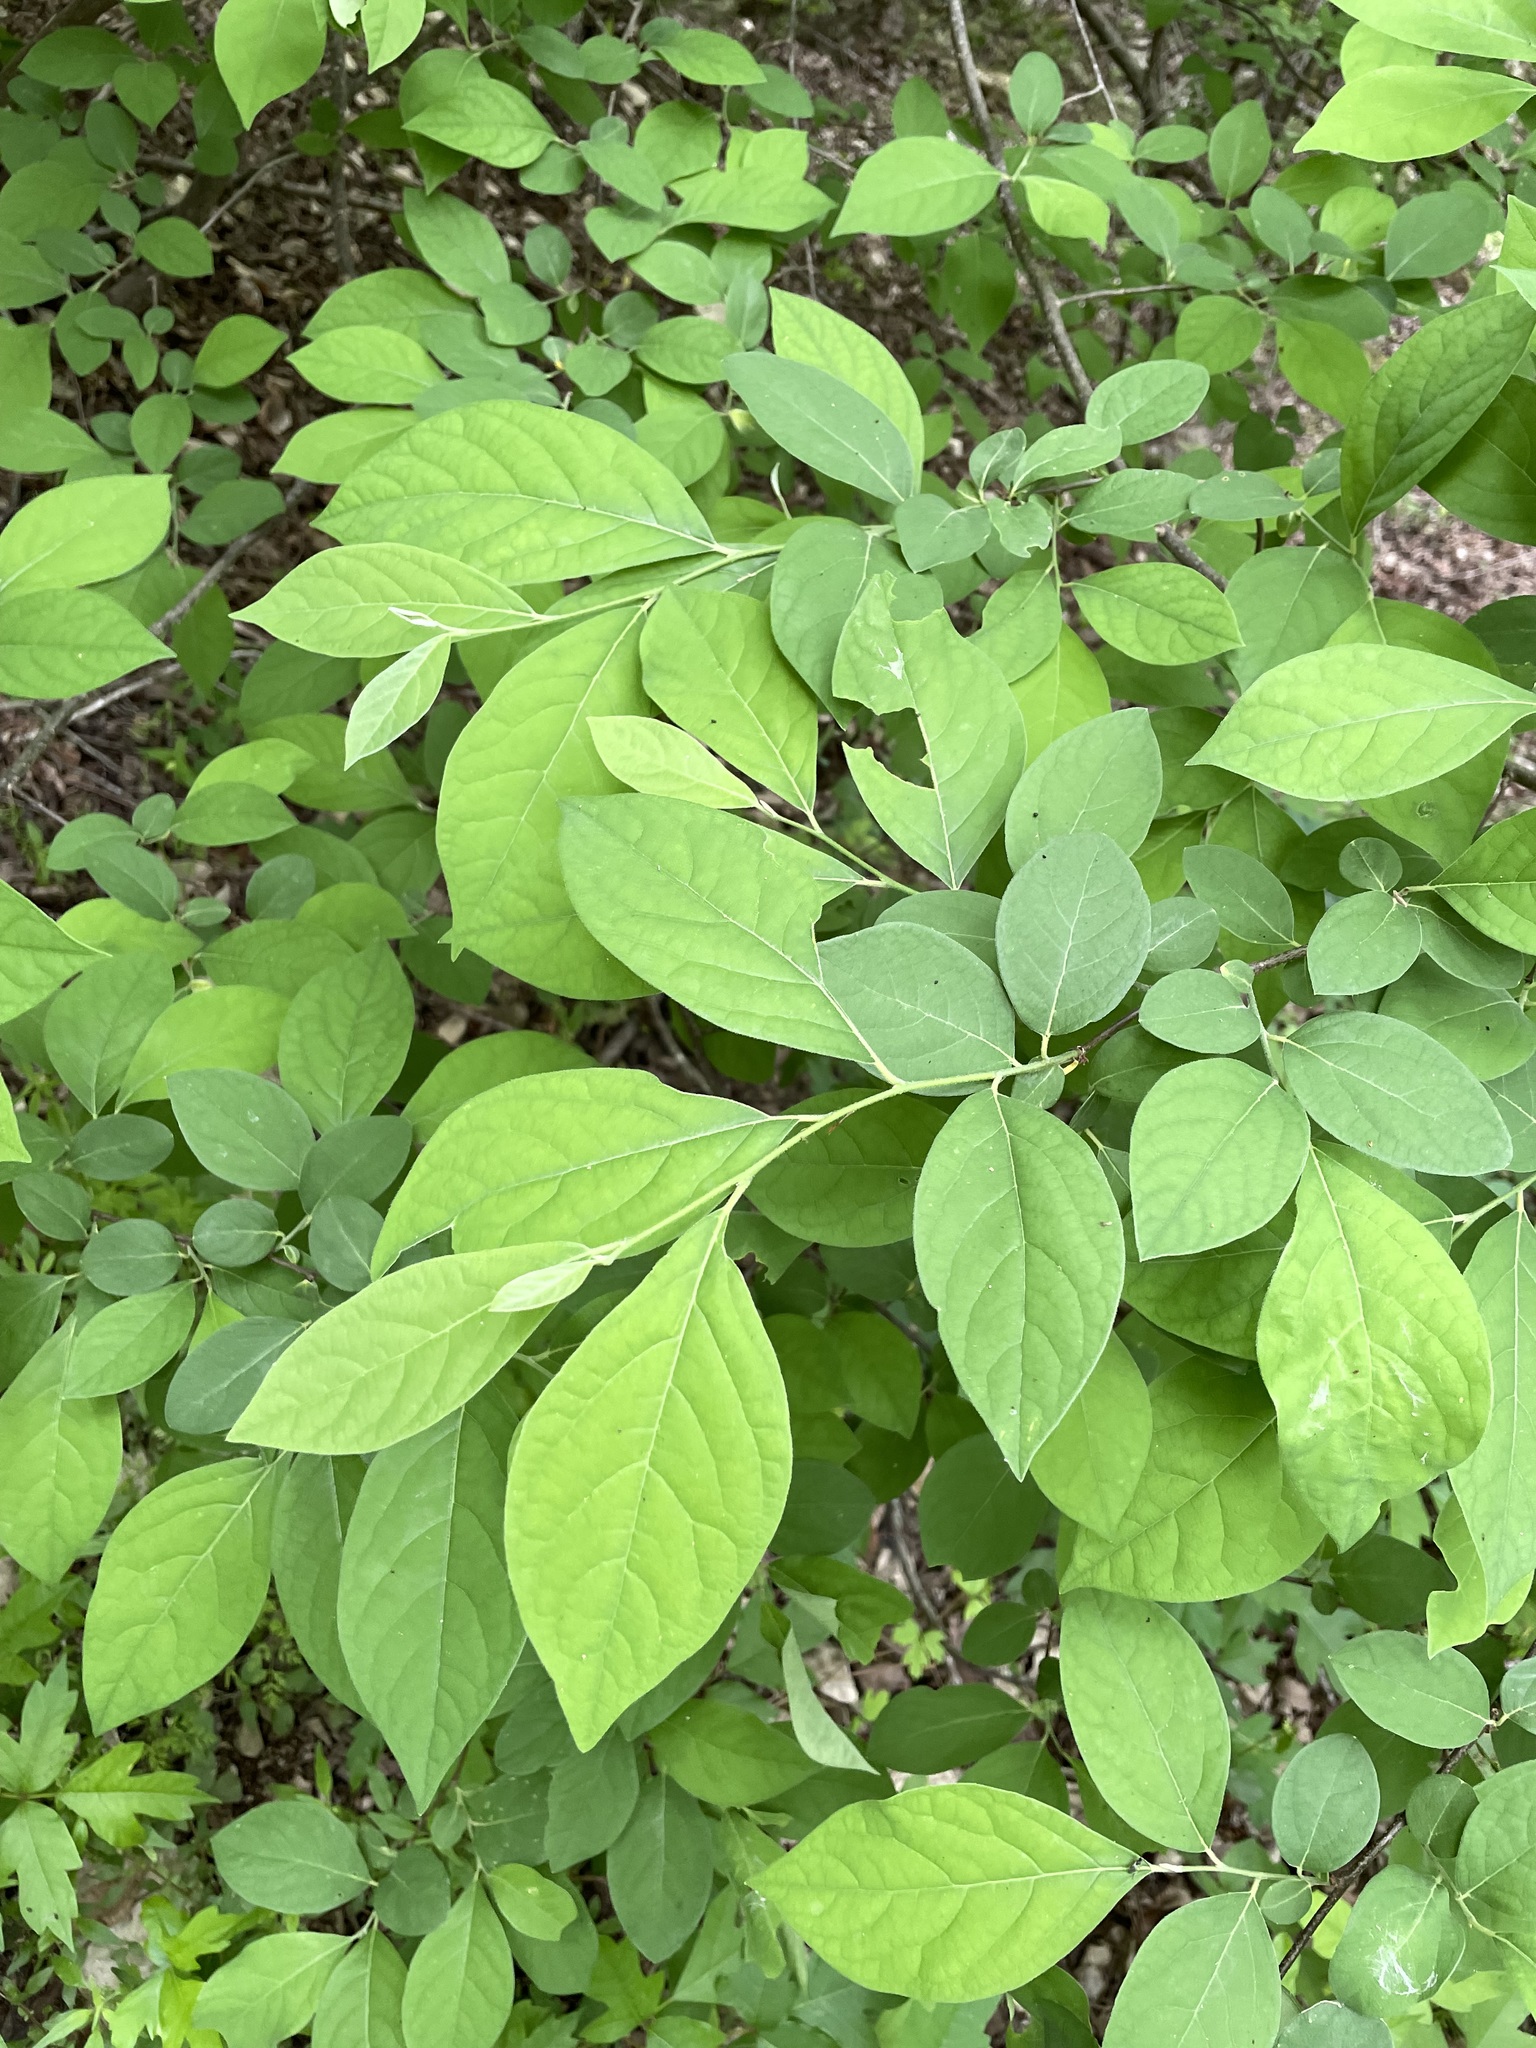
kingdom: Plantae
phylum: Tracheophyta
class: Magnoliopsida
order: Laurales
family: Lauraceae
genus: Lindera
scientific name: Lindera benzoin
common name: Spicebush
